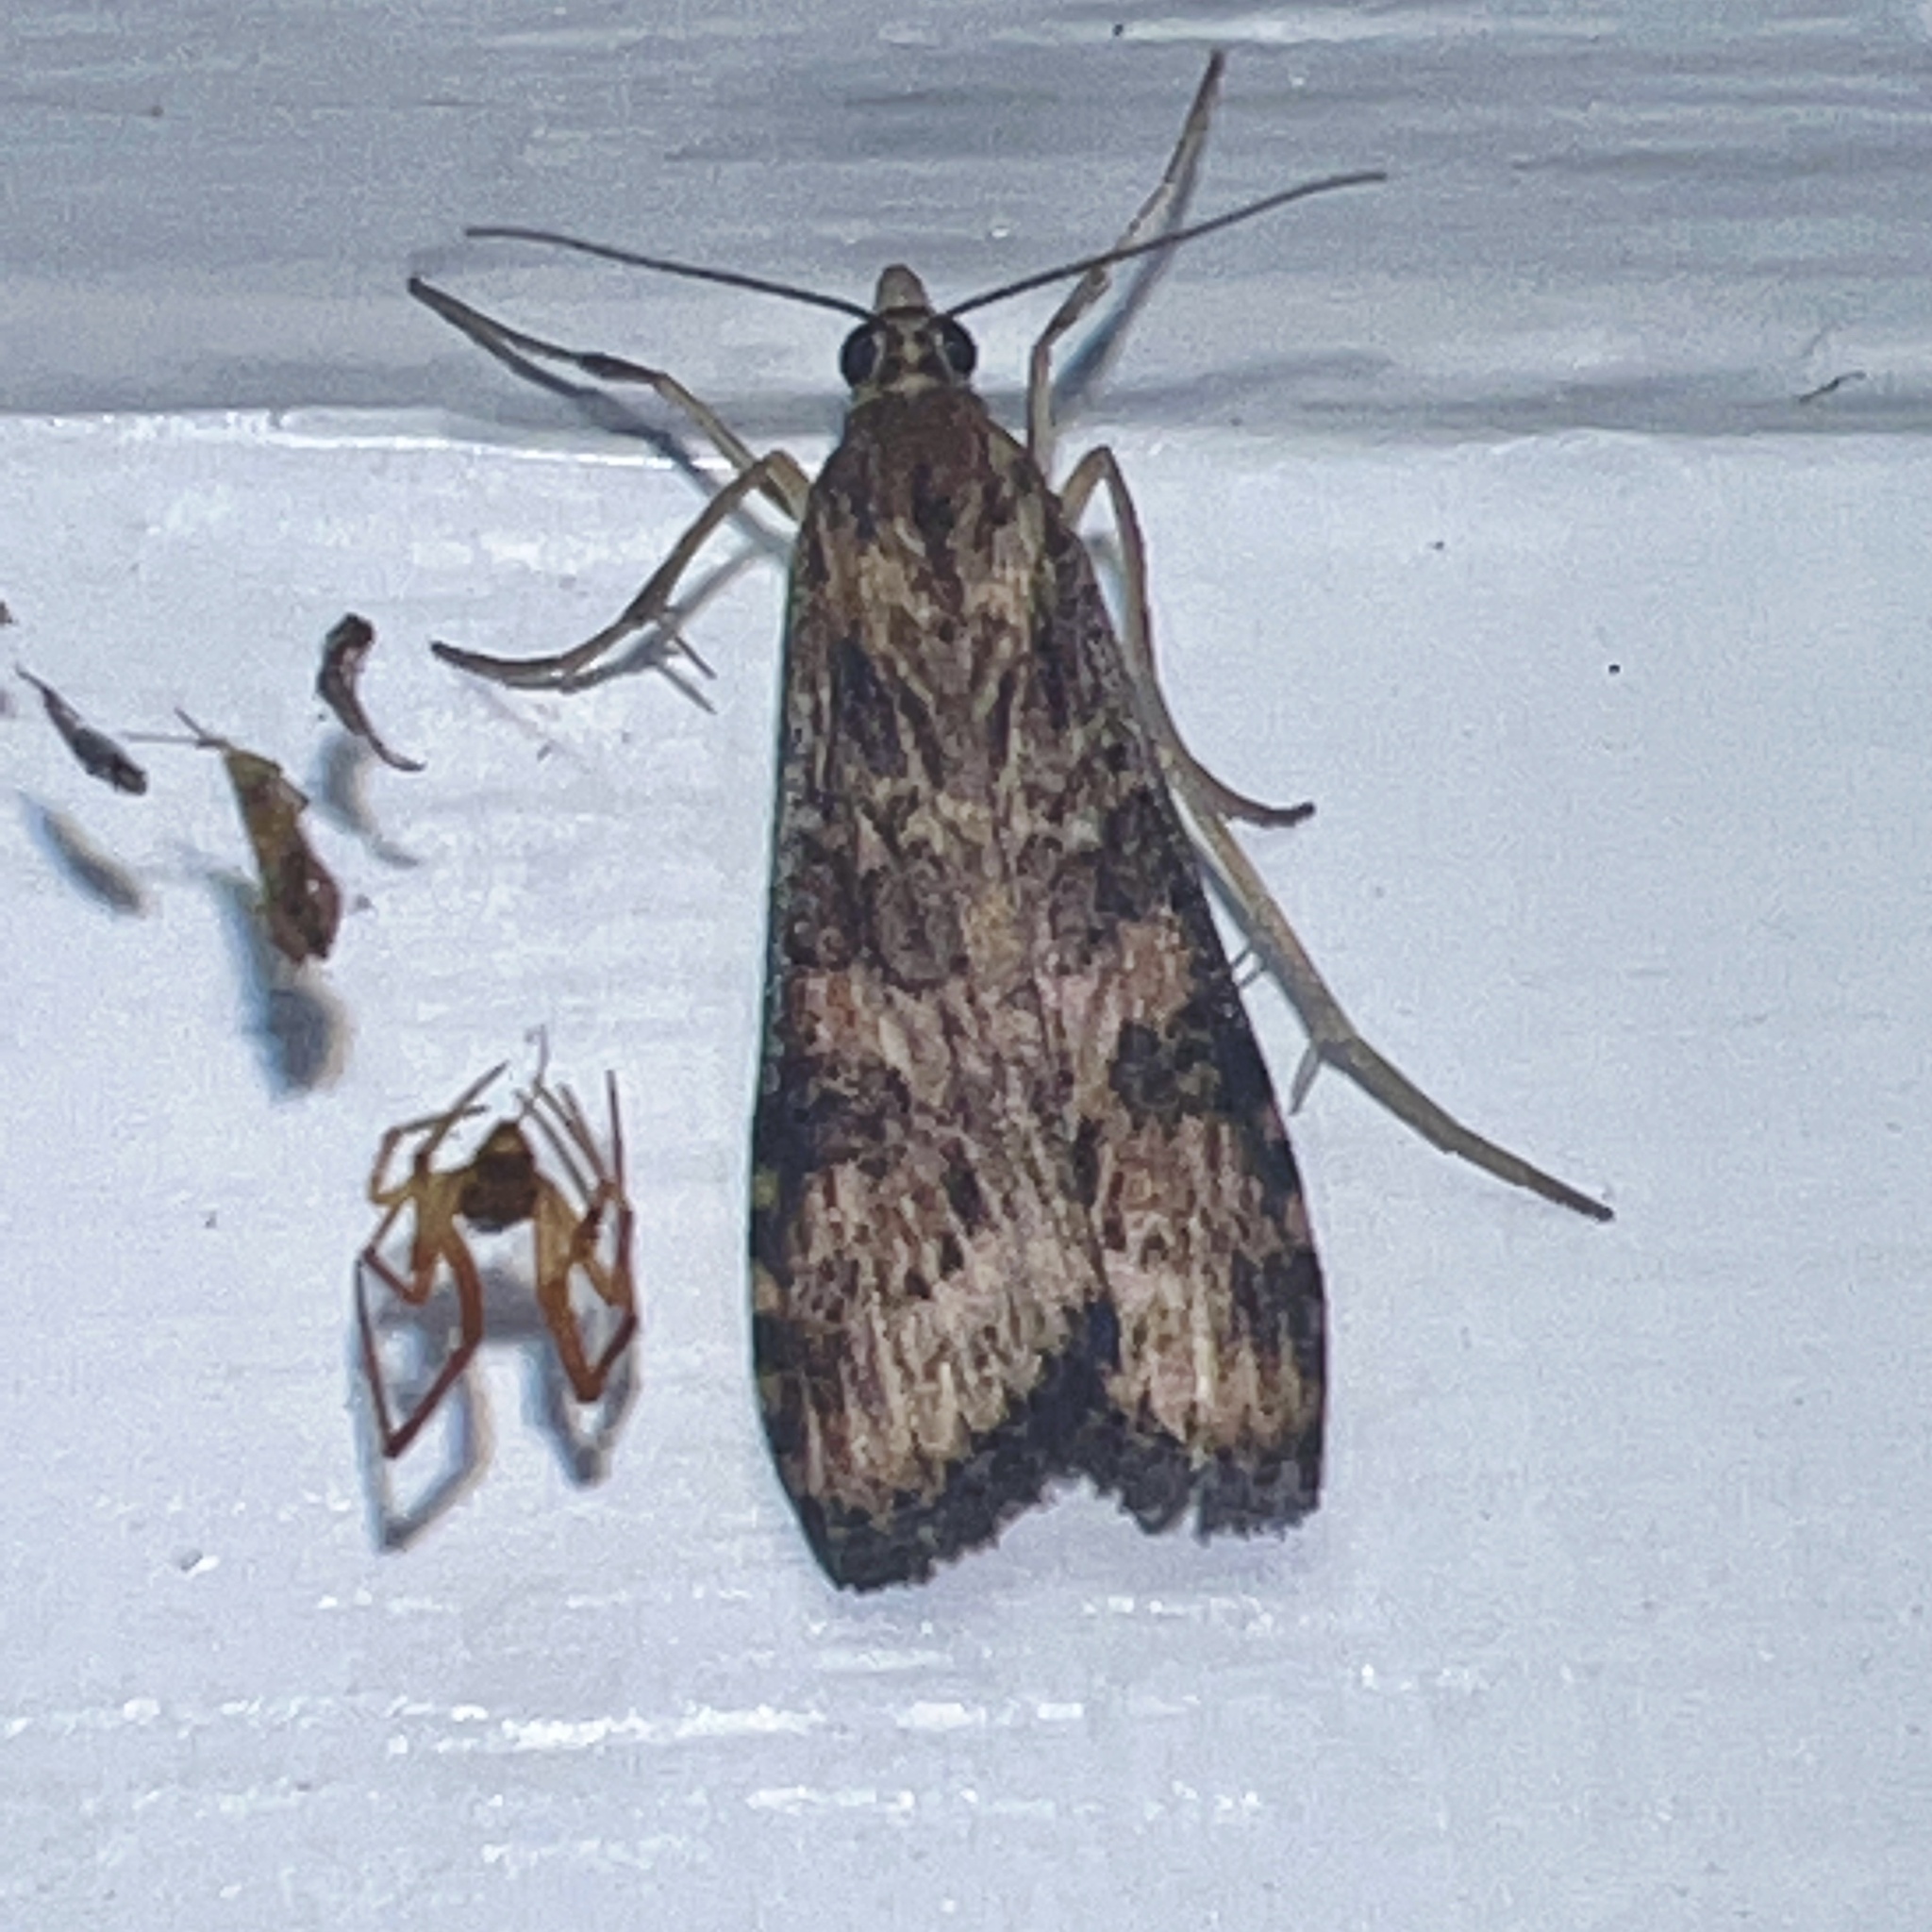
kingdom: Animalia
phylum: Arthropoda
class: Insecta
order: Lepidoptera
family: Crambidae
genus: Nomophila
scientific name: Nomophila nearctica
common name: American rush veneer
